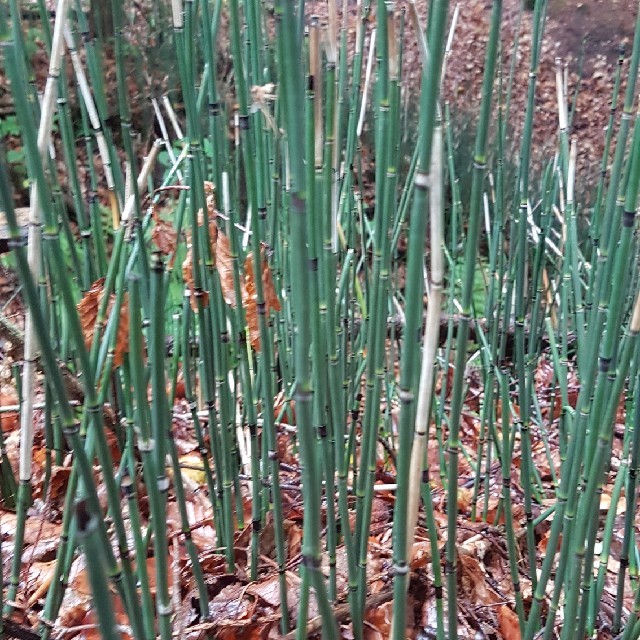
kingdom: Plantae
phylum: Tracheophyta
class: Polypodiopsida
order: Equisetales
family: Equisetaceae
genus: Equisetum
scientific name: Equisetum hyemale
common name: Rough horsetail
